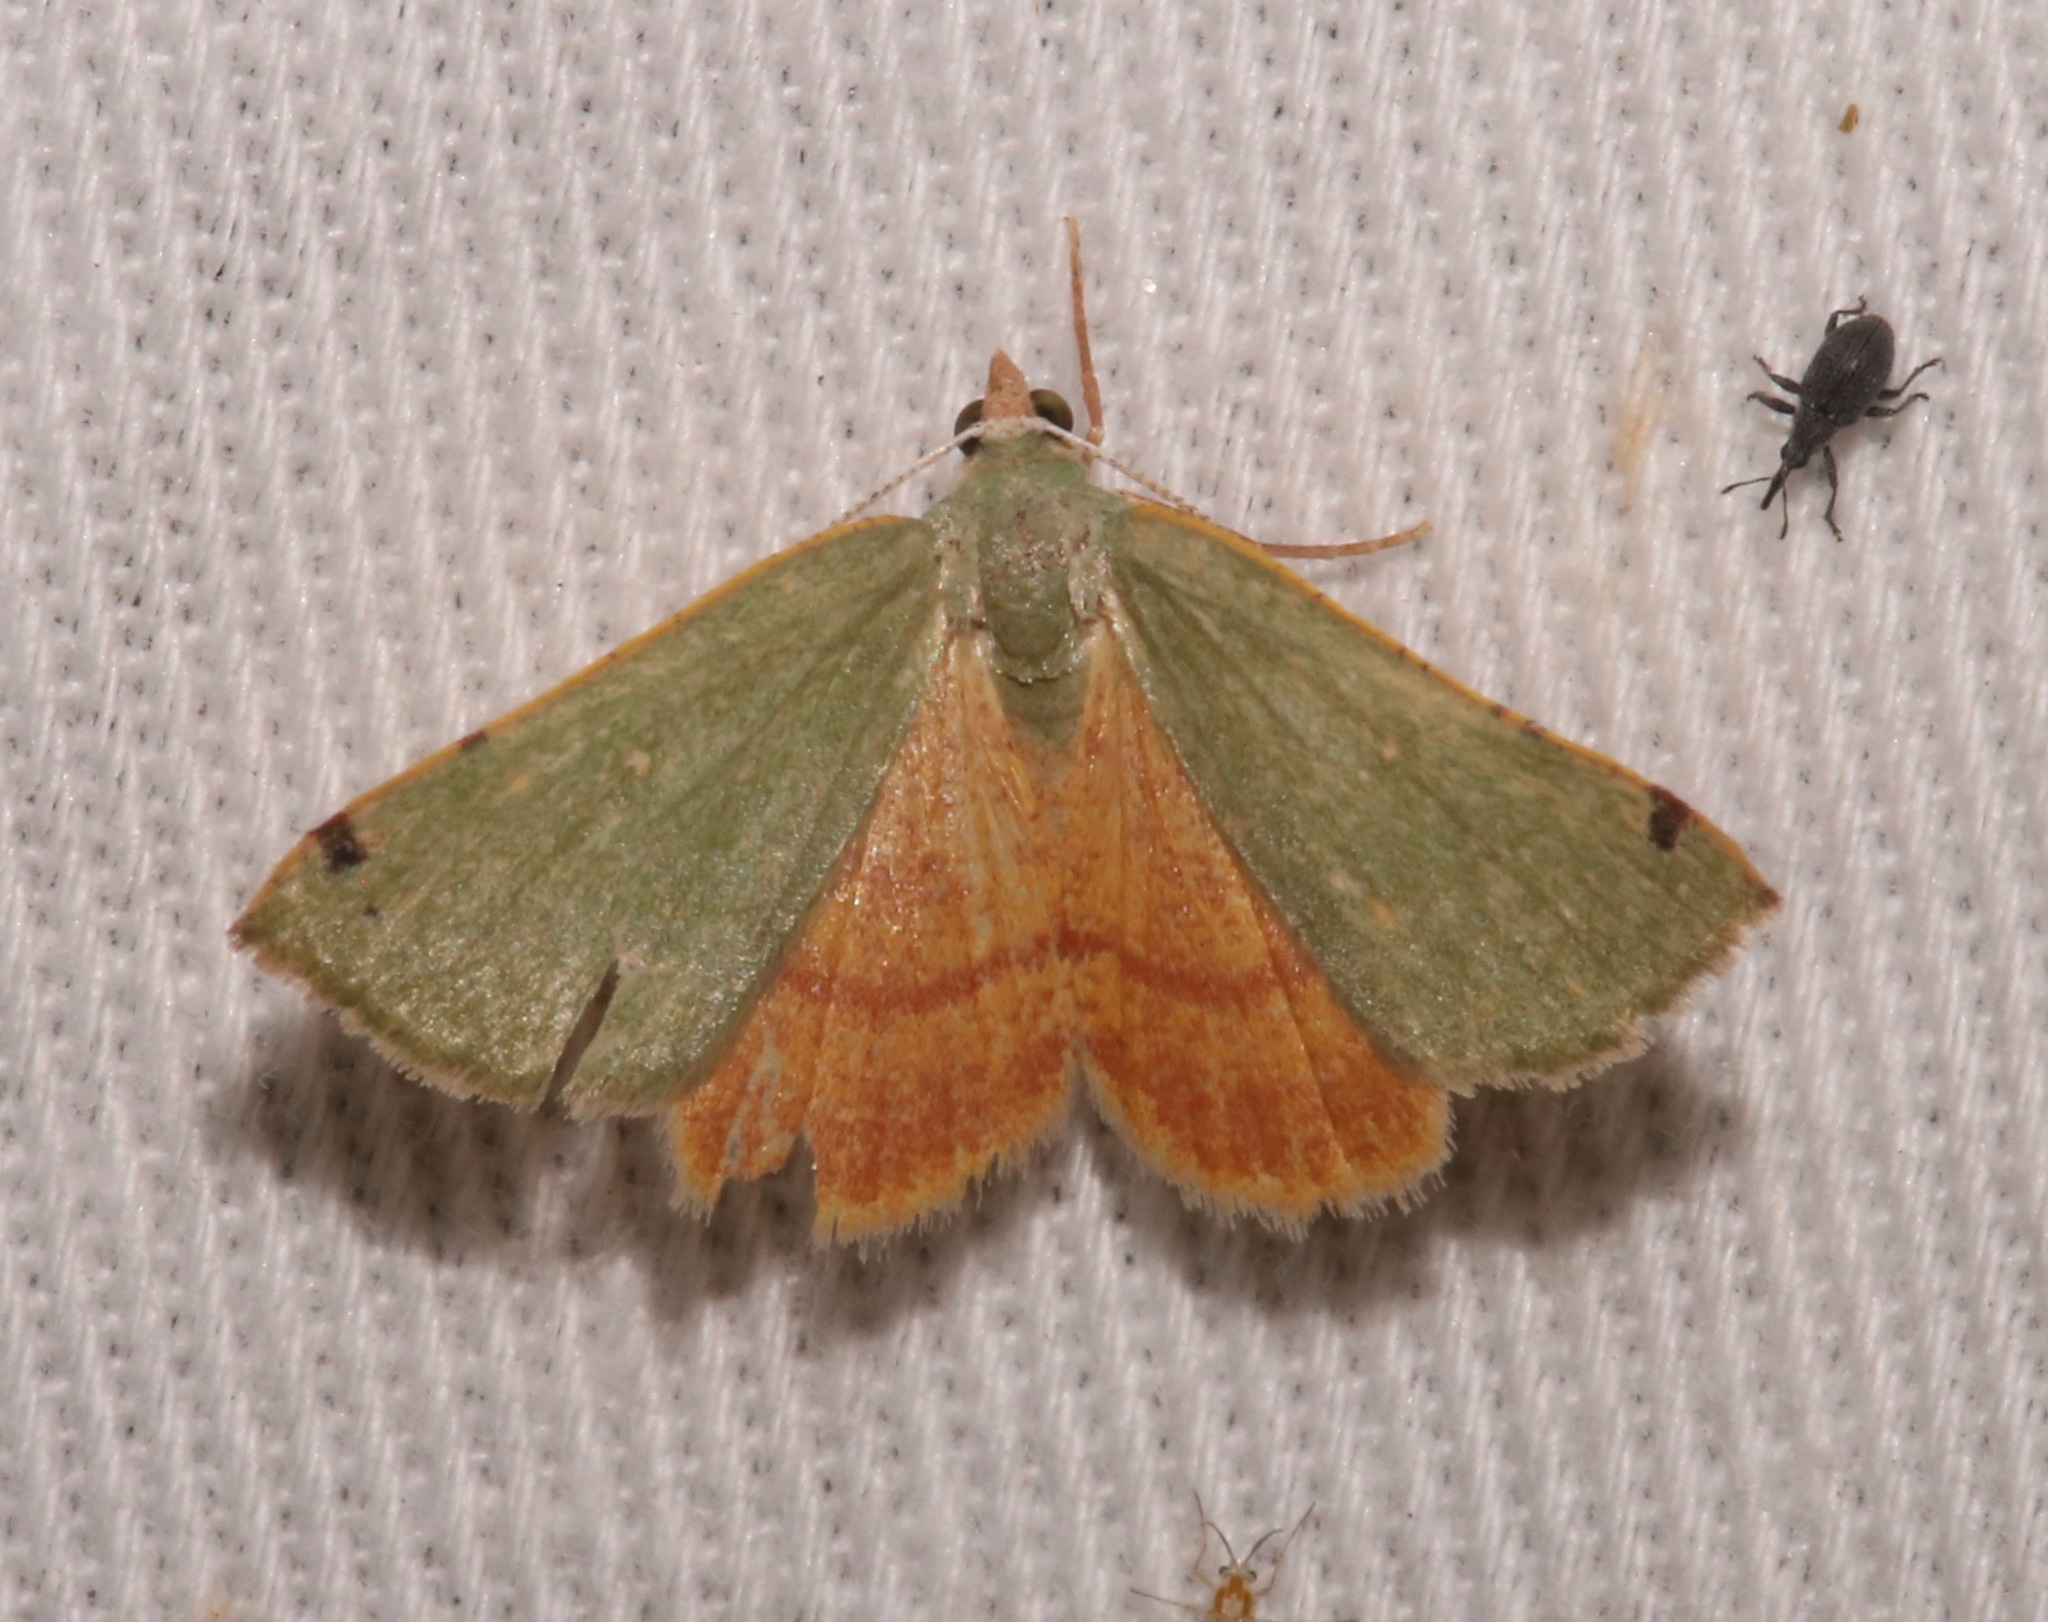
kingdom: Animalia
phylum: Arthropoda
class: Insecta
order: Lepidoptera
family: Geometridae
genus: Chloraspilates
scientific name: Chloraspilates bicoloraria
